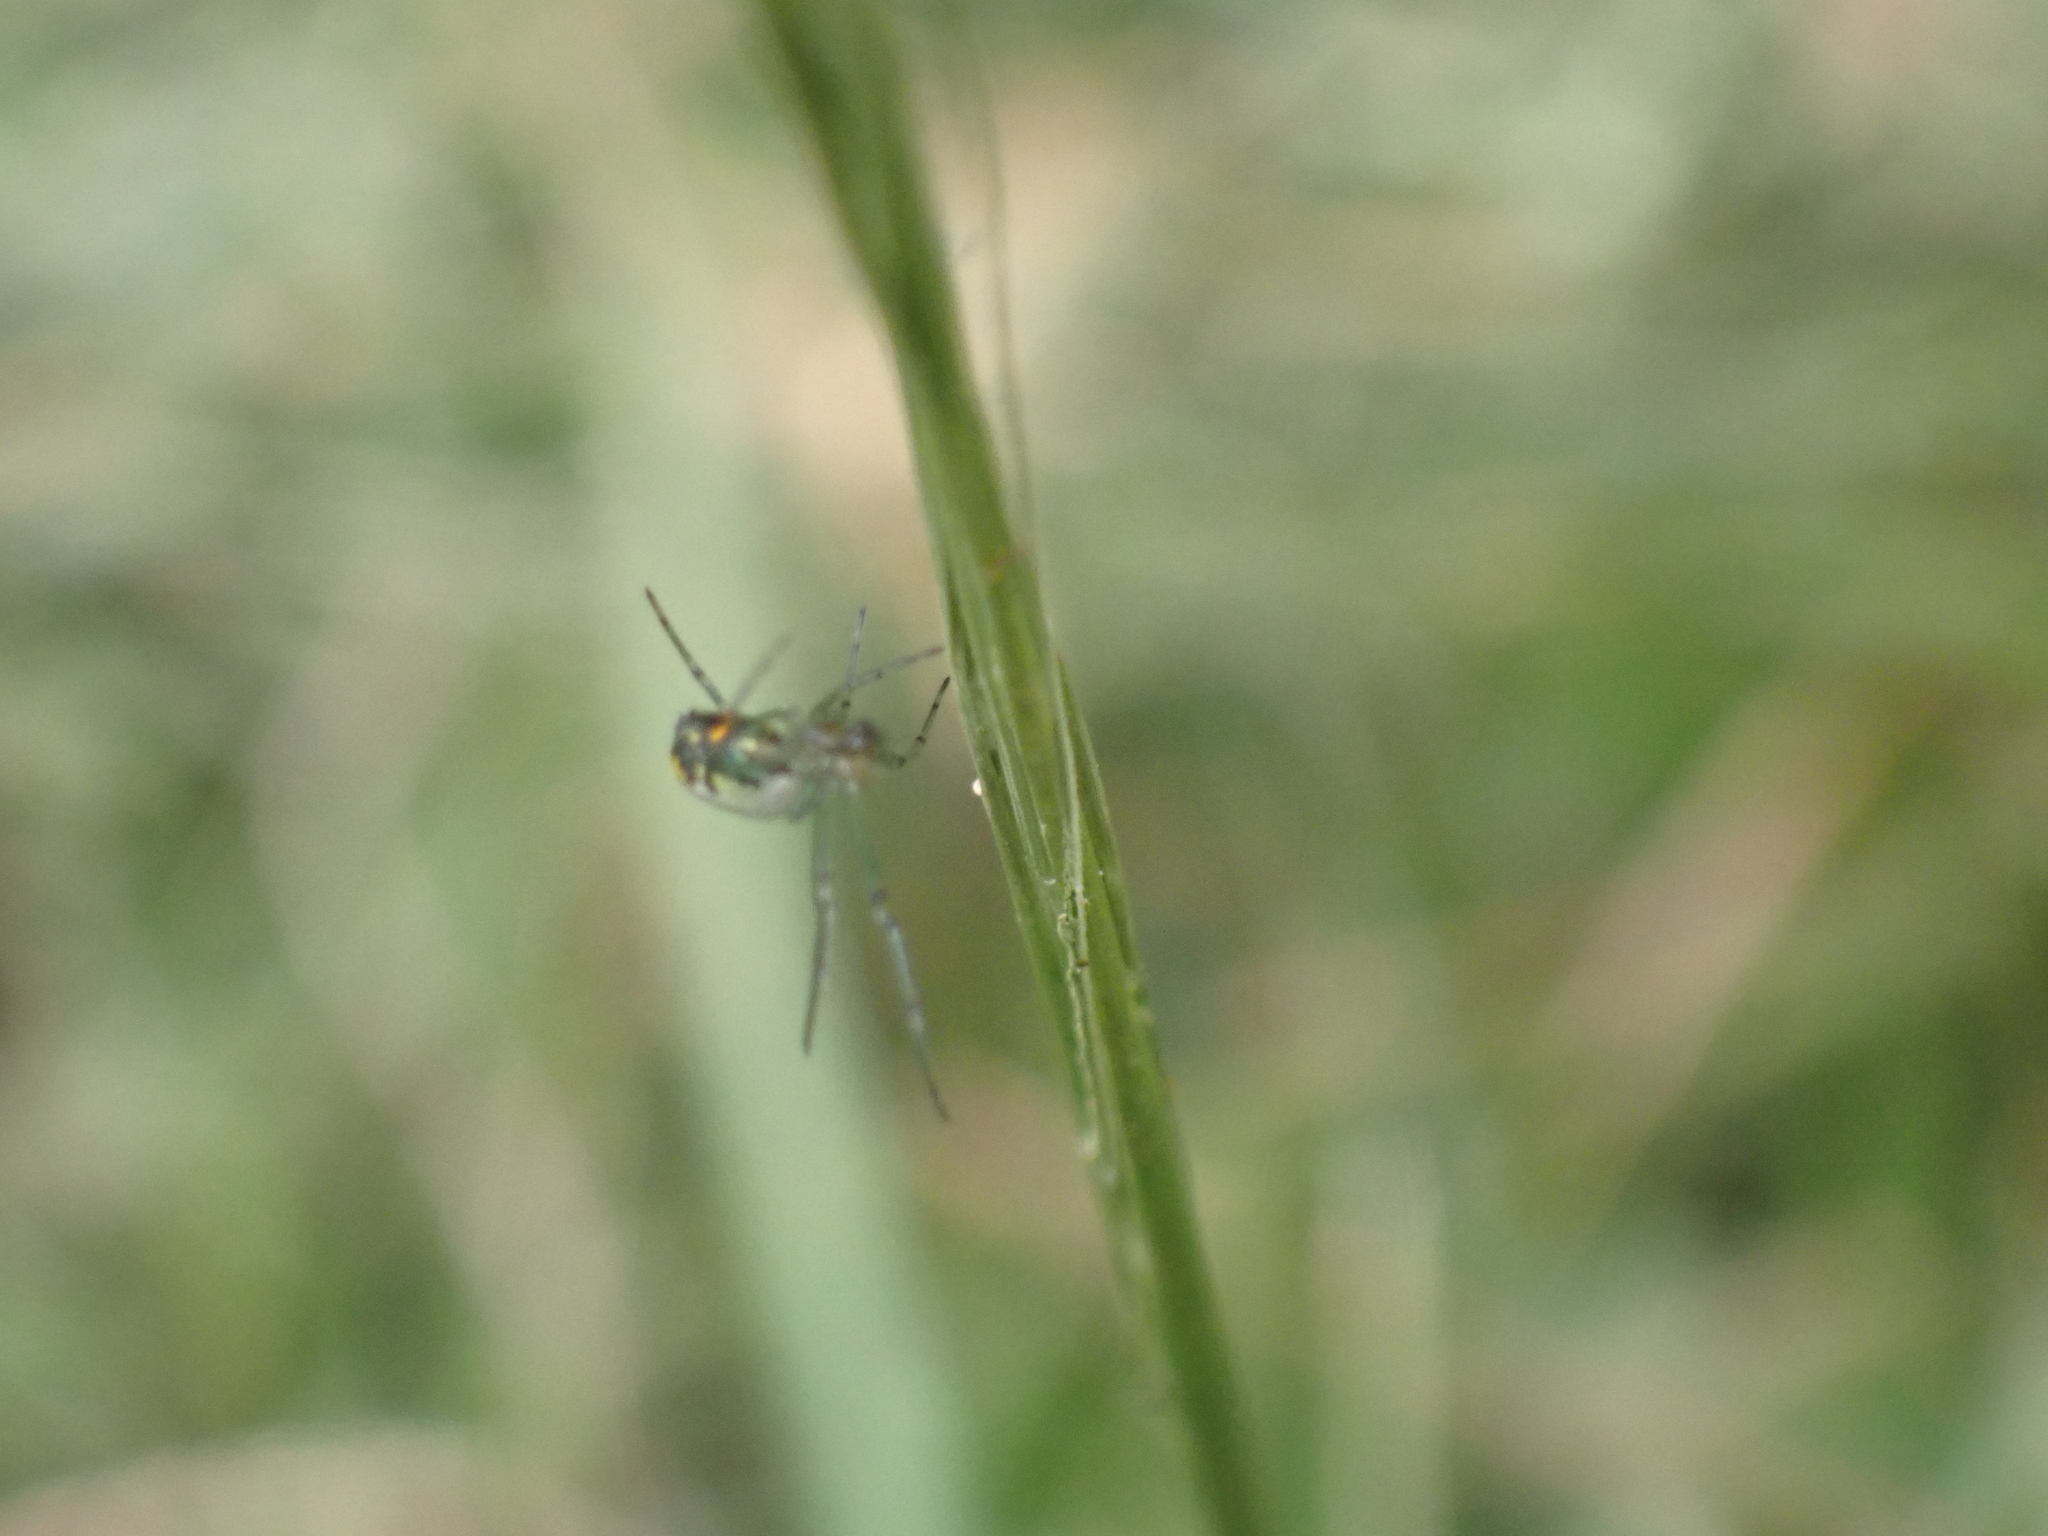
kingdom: Animalia
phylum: Arthropoda
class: Arachnida
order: Araneae
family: Tetragnathidae
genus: Leucauge
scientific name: Leucauge venusta
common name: Longjawed orb weavers
